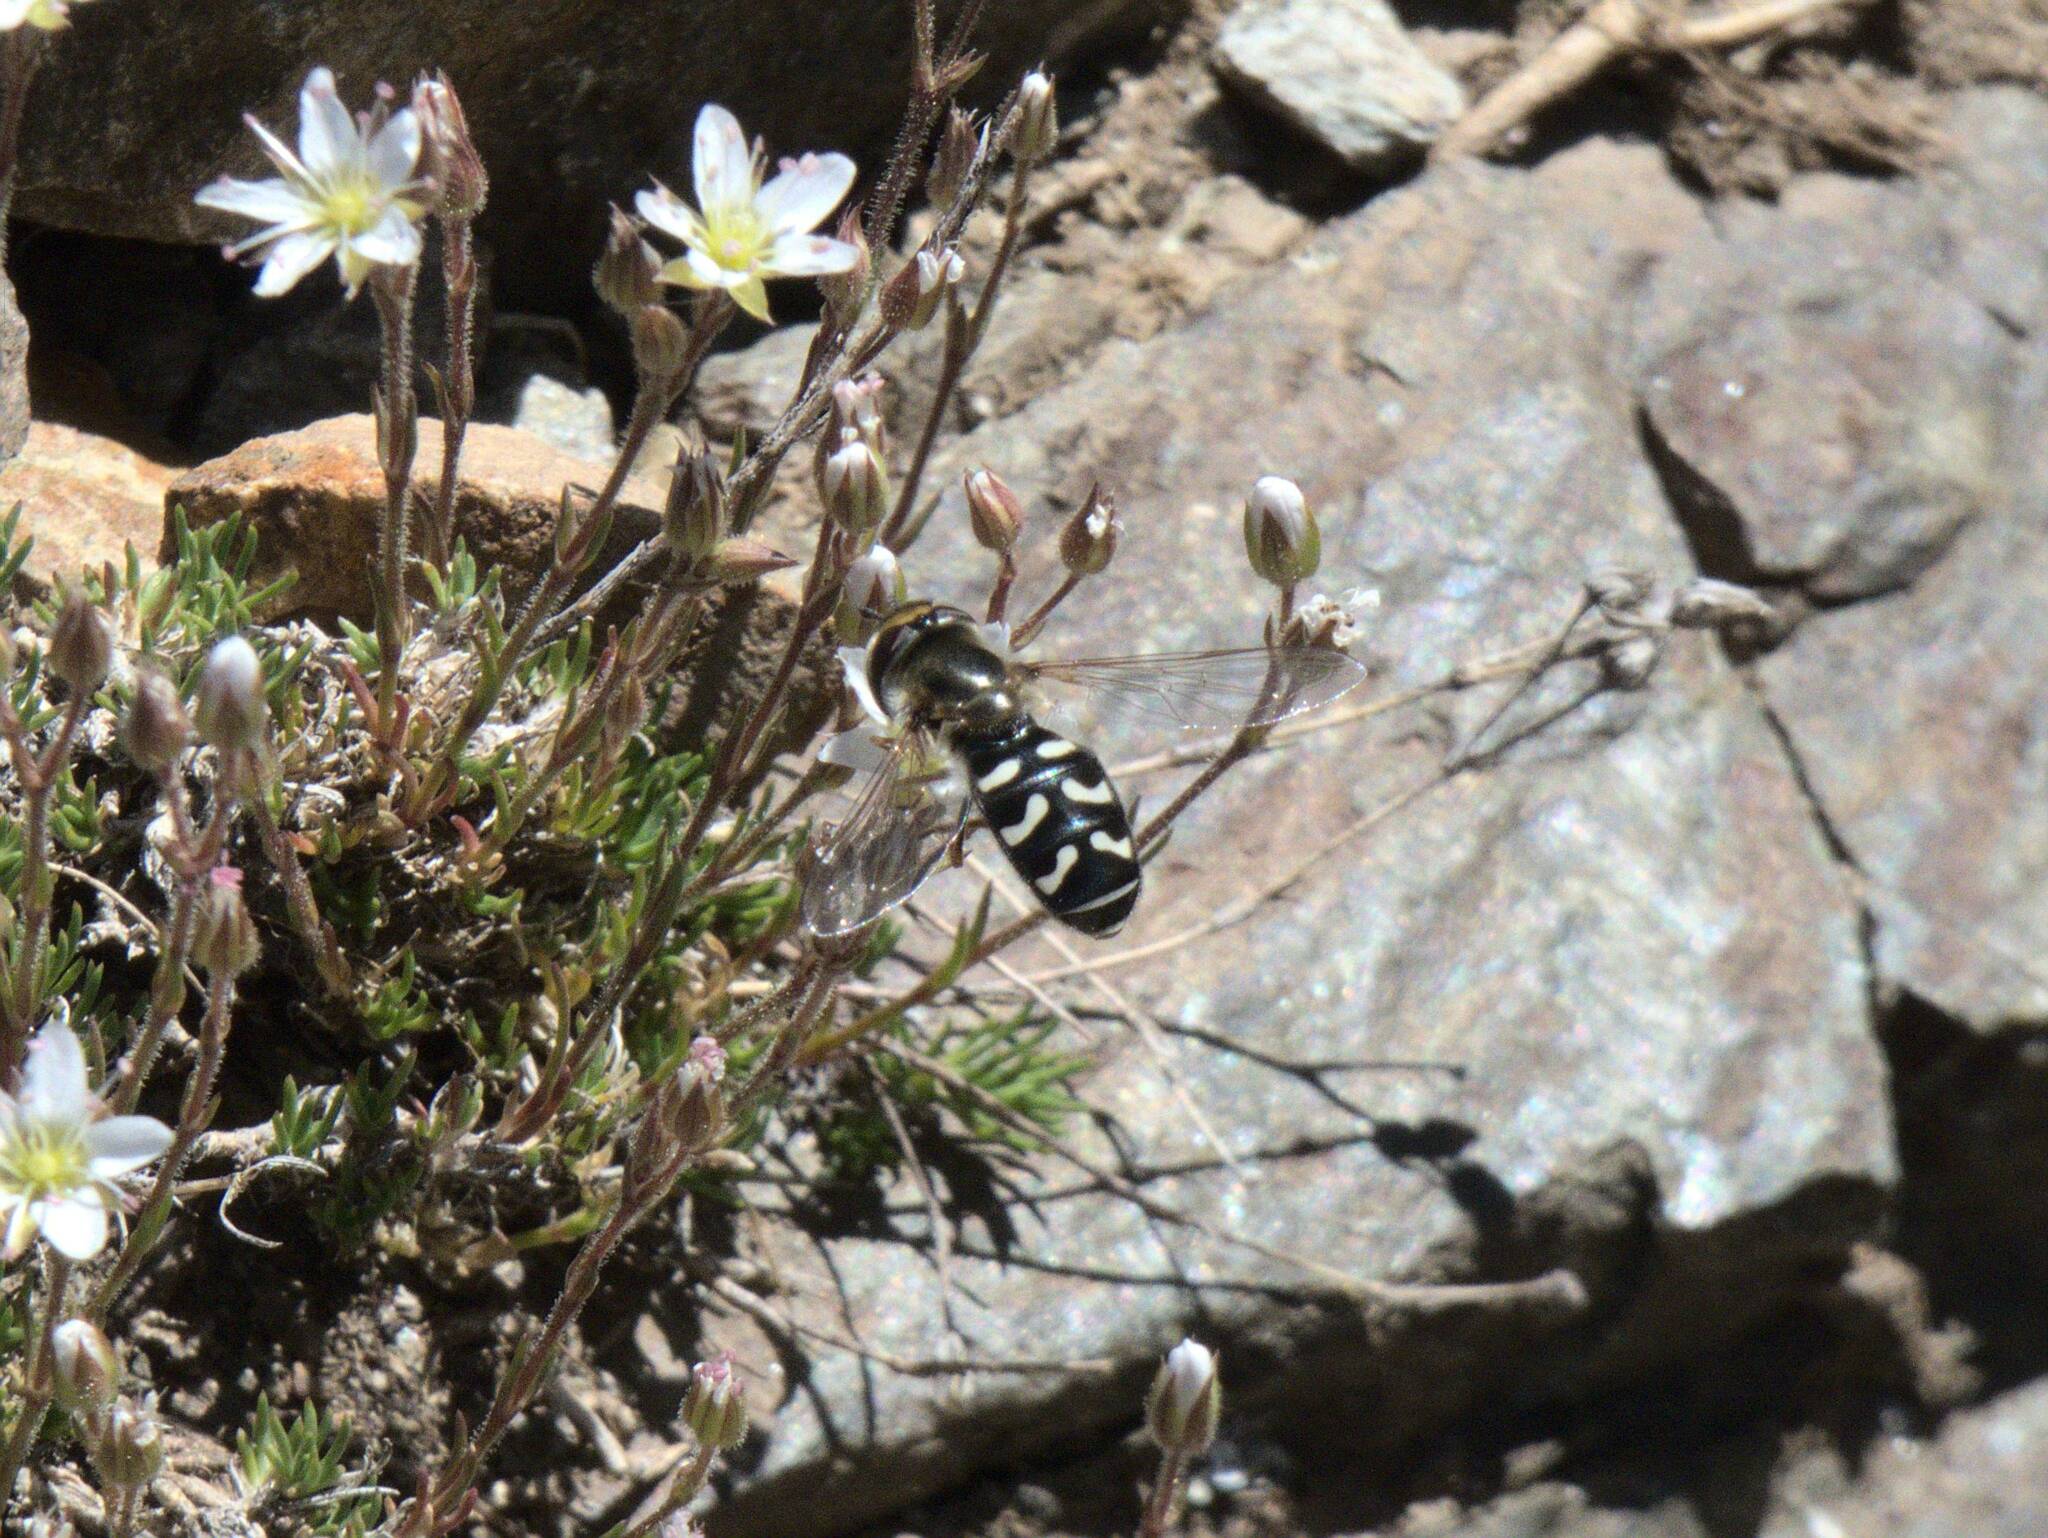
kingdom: Animalia
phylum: Arthropoda
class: Insecta
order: Diptera
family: Syrphidae
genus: Scaeva
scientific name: Scaeva pyrastri
